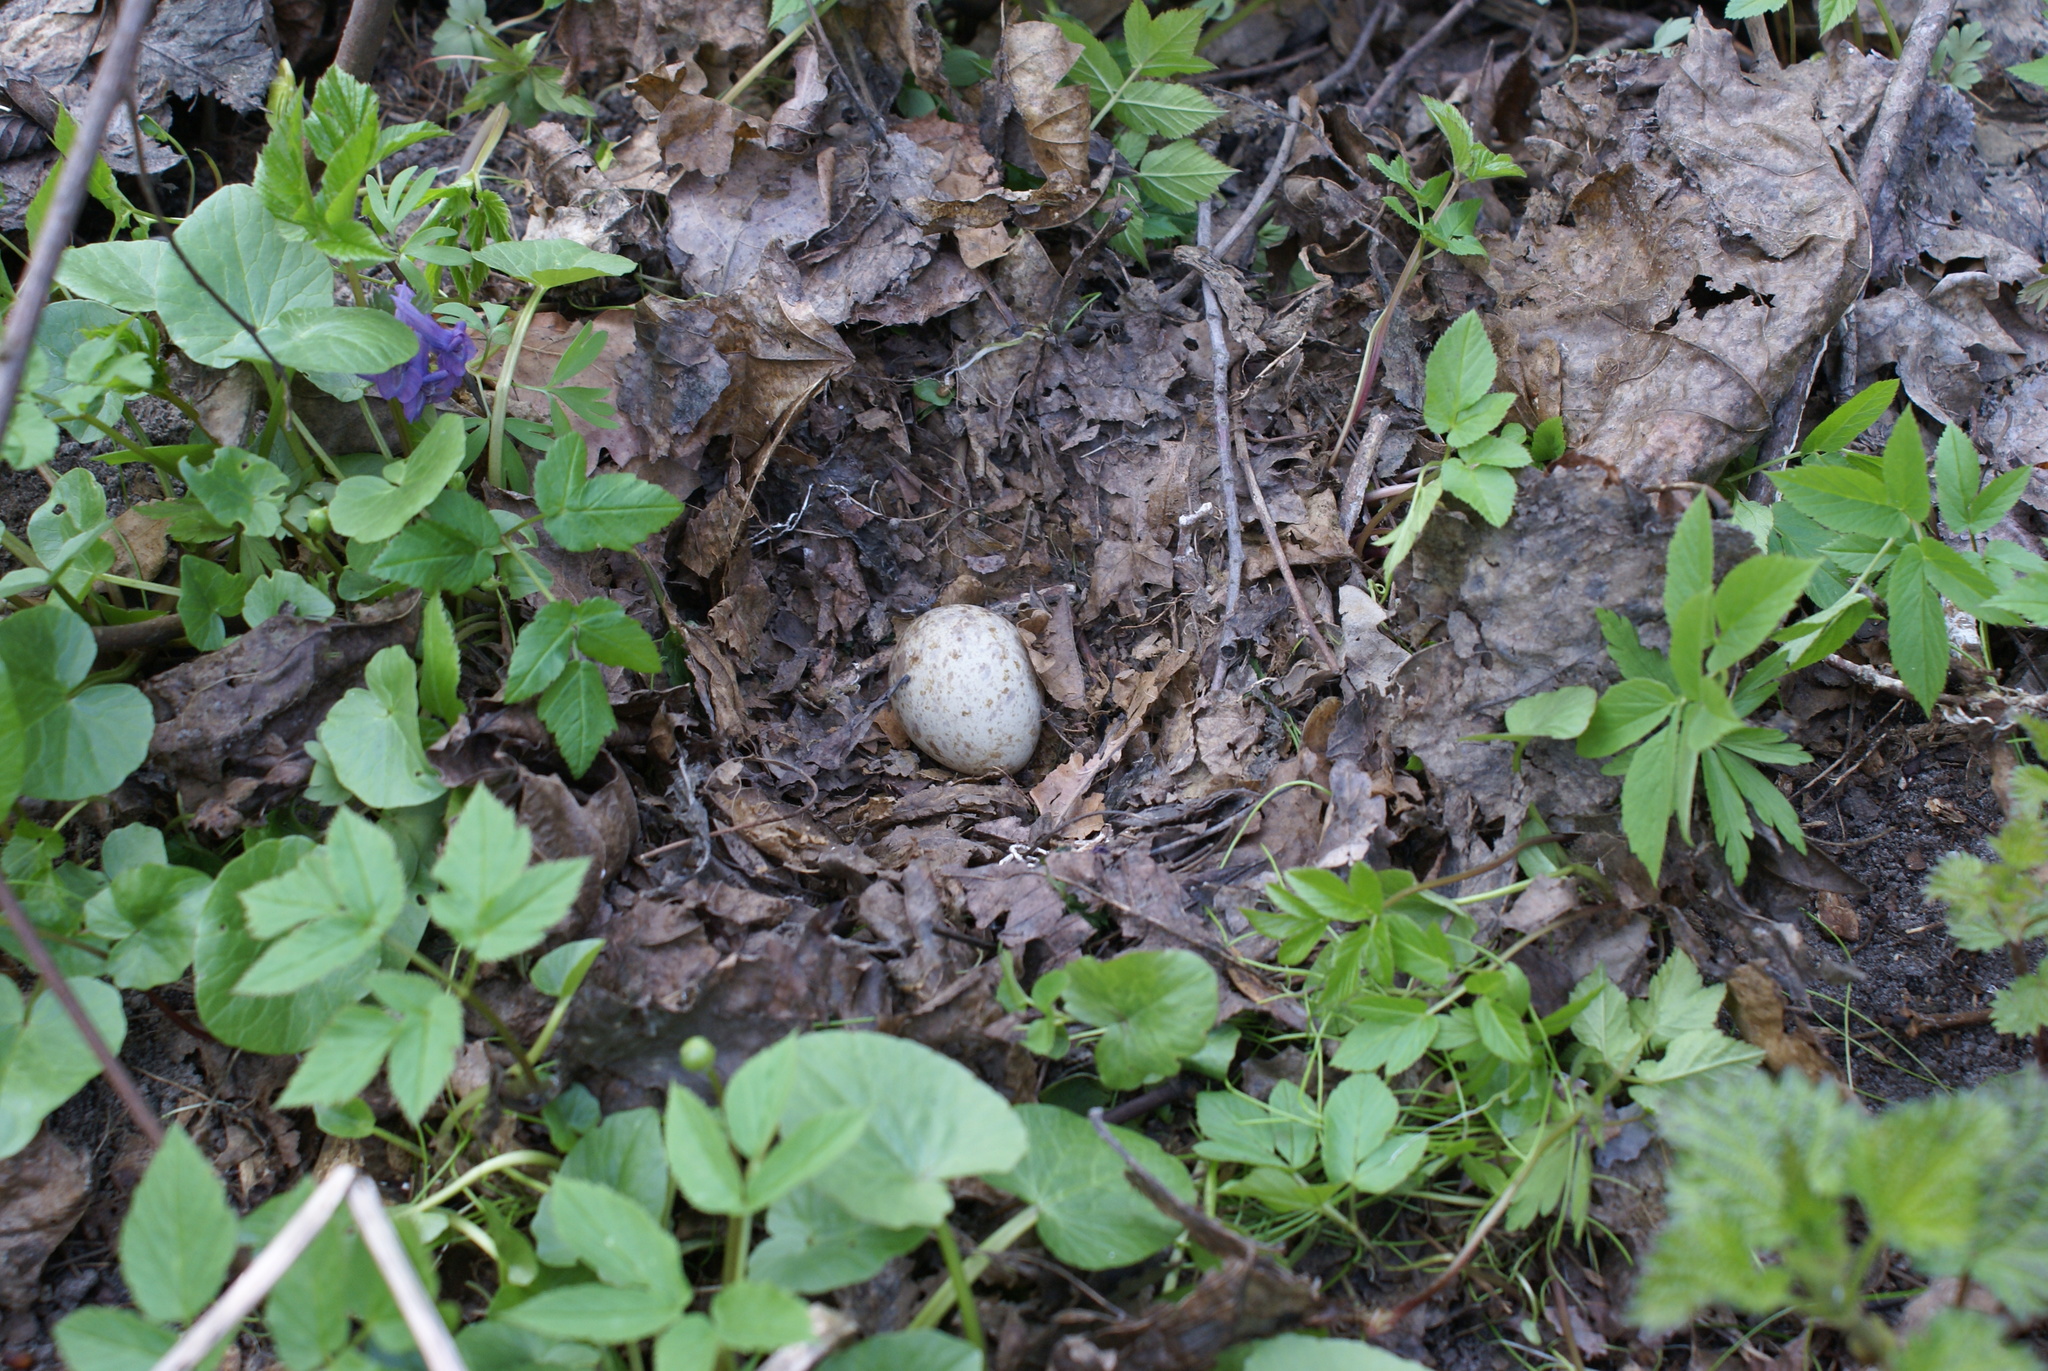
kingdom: Animalia
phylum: Chordata
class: Aves
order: Charadriiformes
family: Scolopacidae
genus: Scolopax
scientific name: Scolopax rusticola
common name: Eurasian woodcock
